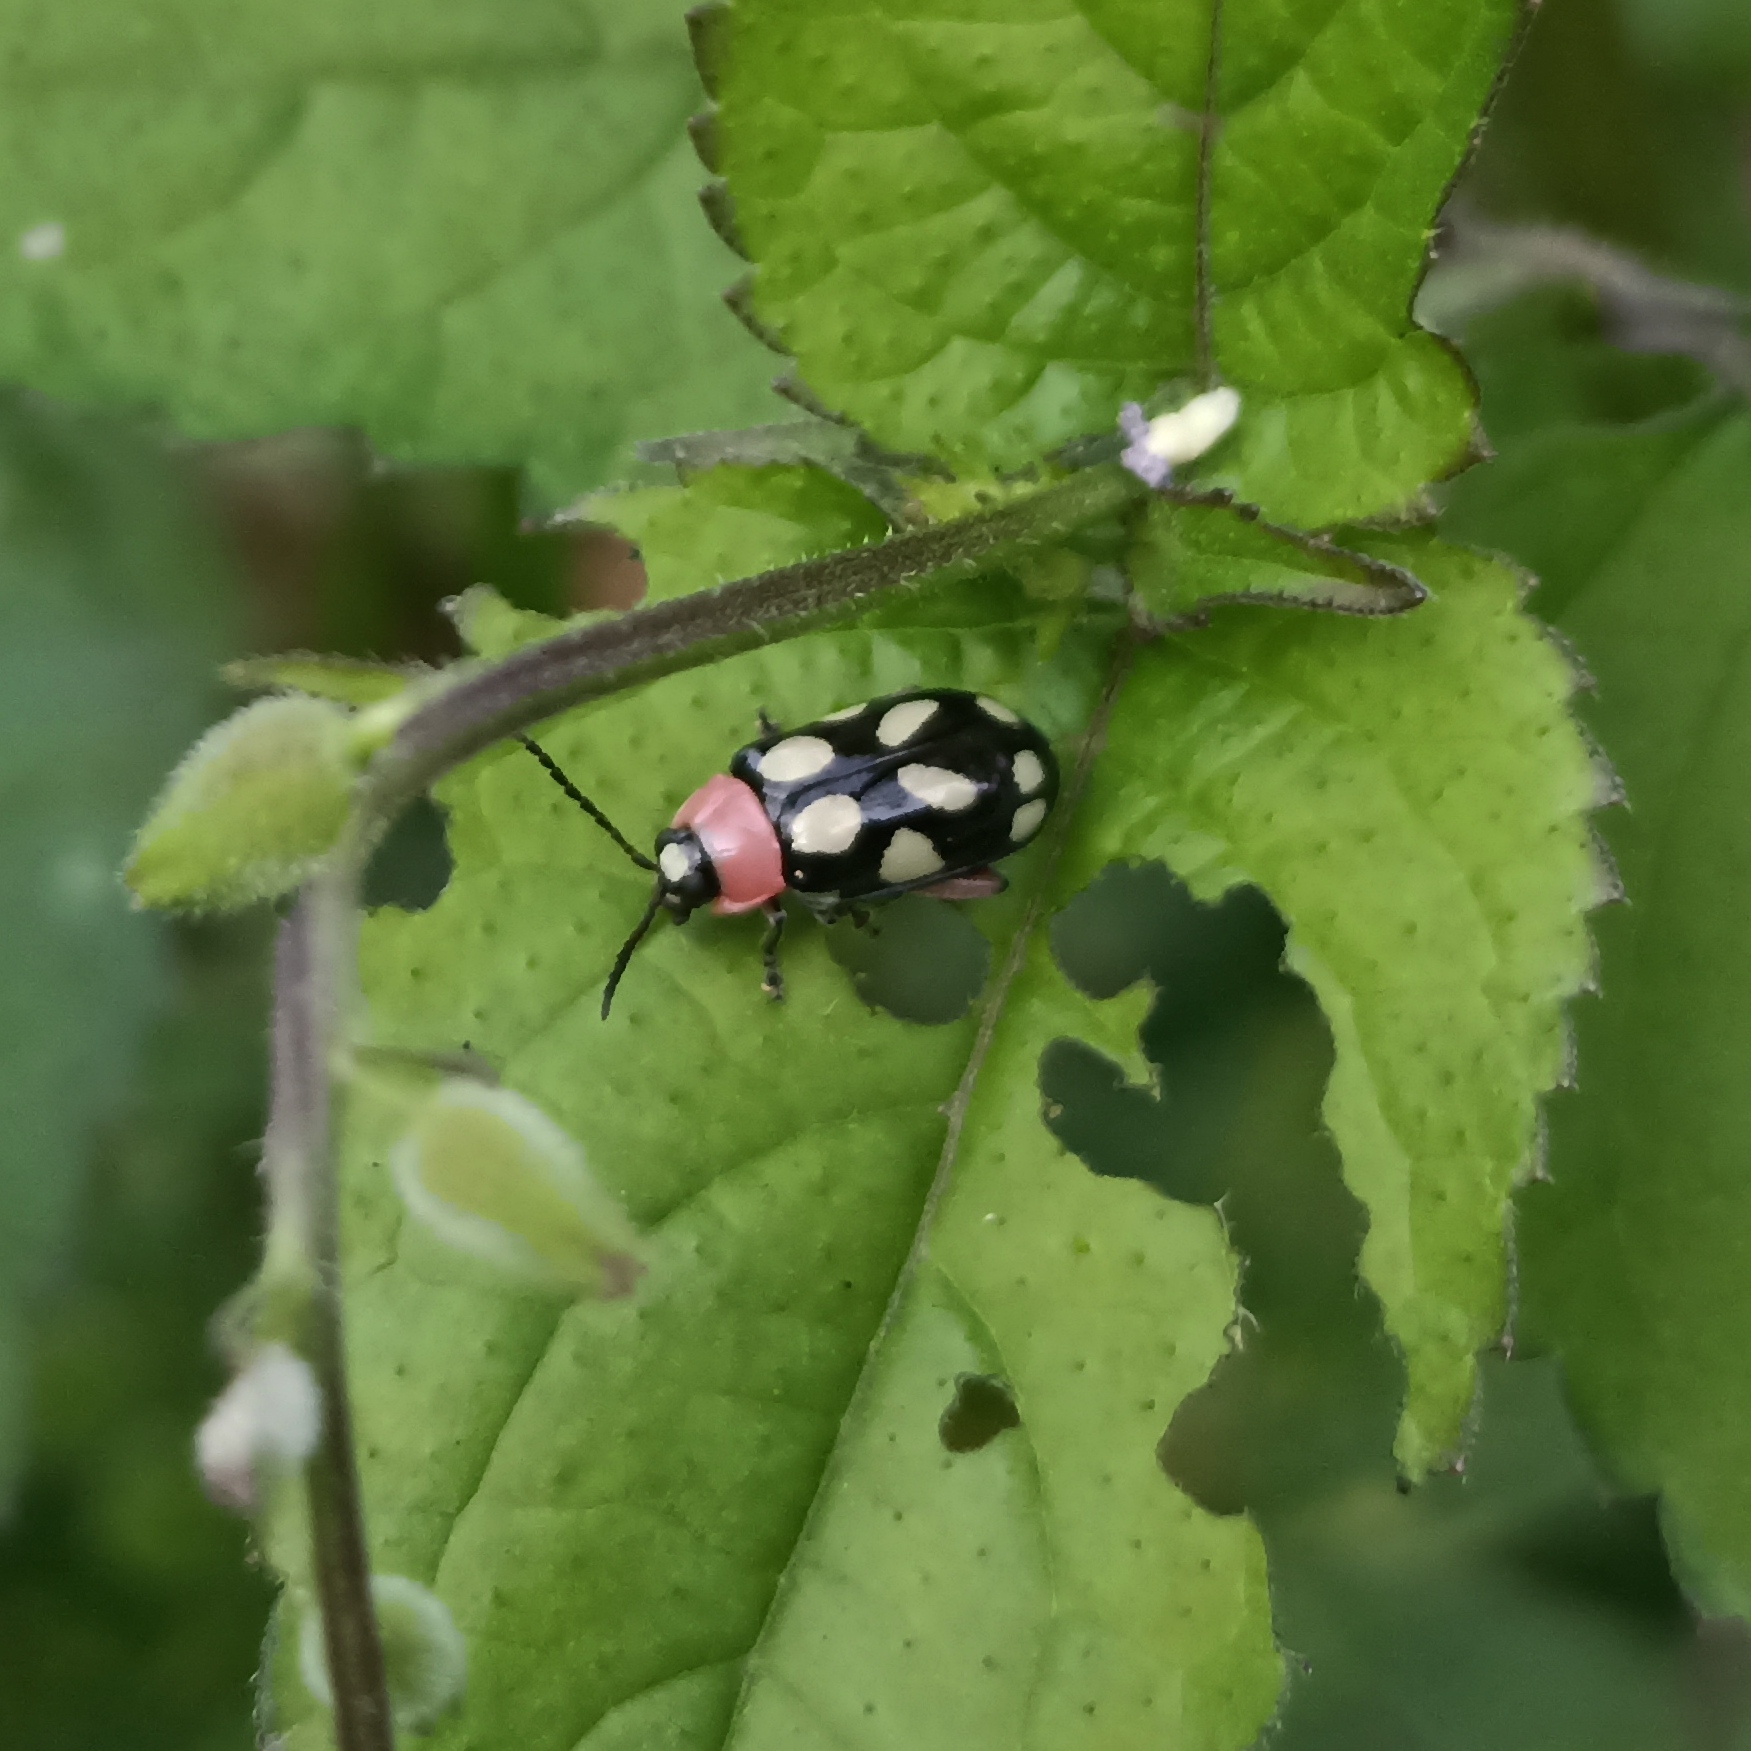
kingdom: Animalia
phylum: Arthropoda
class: Insecta
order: Coleoptera
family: Chrysomelidae
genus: Omophoita
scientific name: Omophoita
